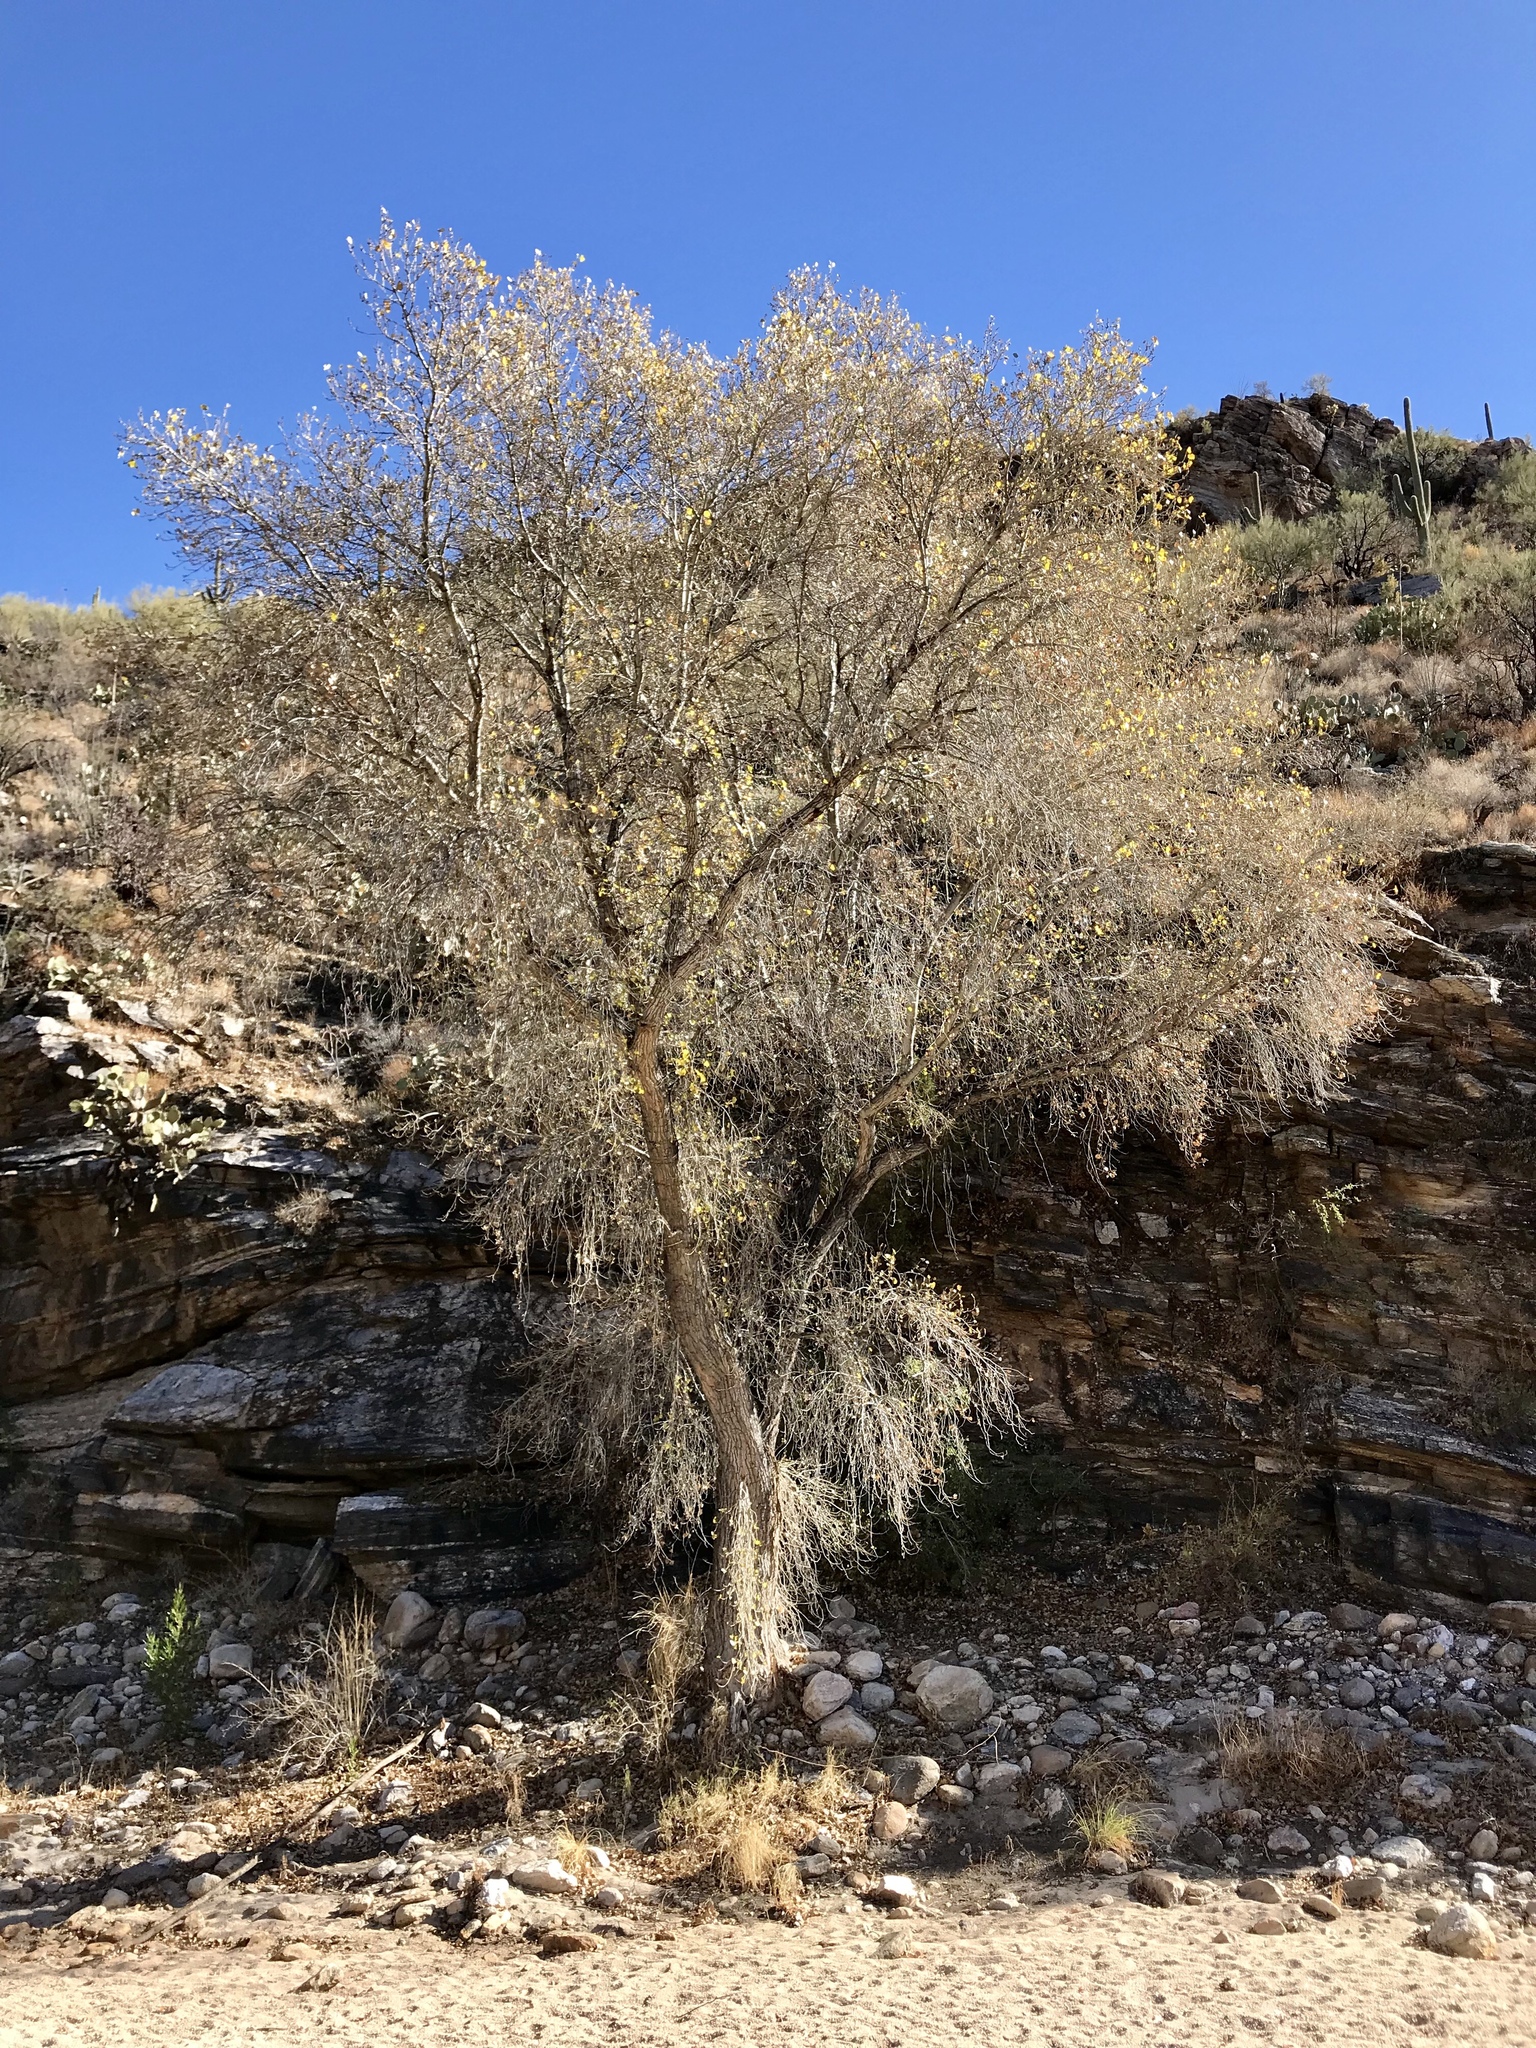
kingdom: Plantae
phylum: Tracheophyta
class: Magnoliopsida
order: Malpighiales
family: Salicaceae
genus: Populus
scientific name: Populus fremontii
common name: Fremont's cottonwood
